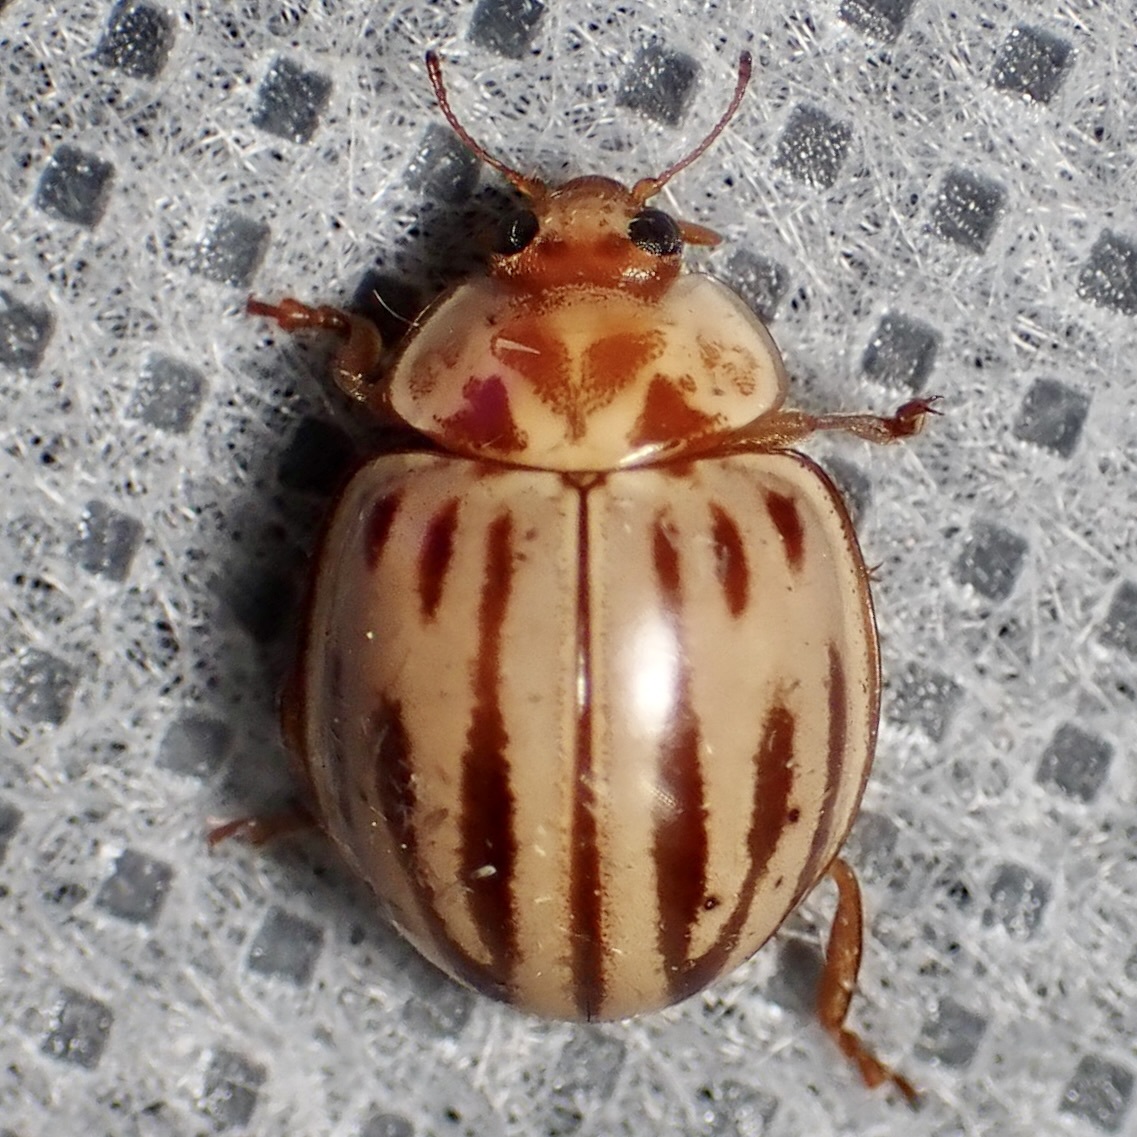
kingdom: Animalia
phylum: Arthropoda
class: Insecta
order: Coleoptera
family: Coccinellidae
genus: Myzia
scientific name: Myzia interrupta
